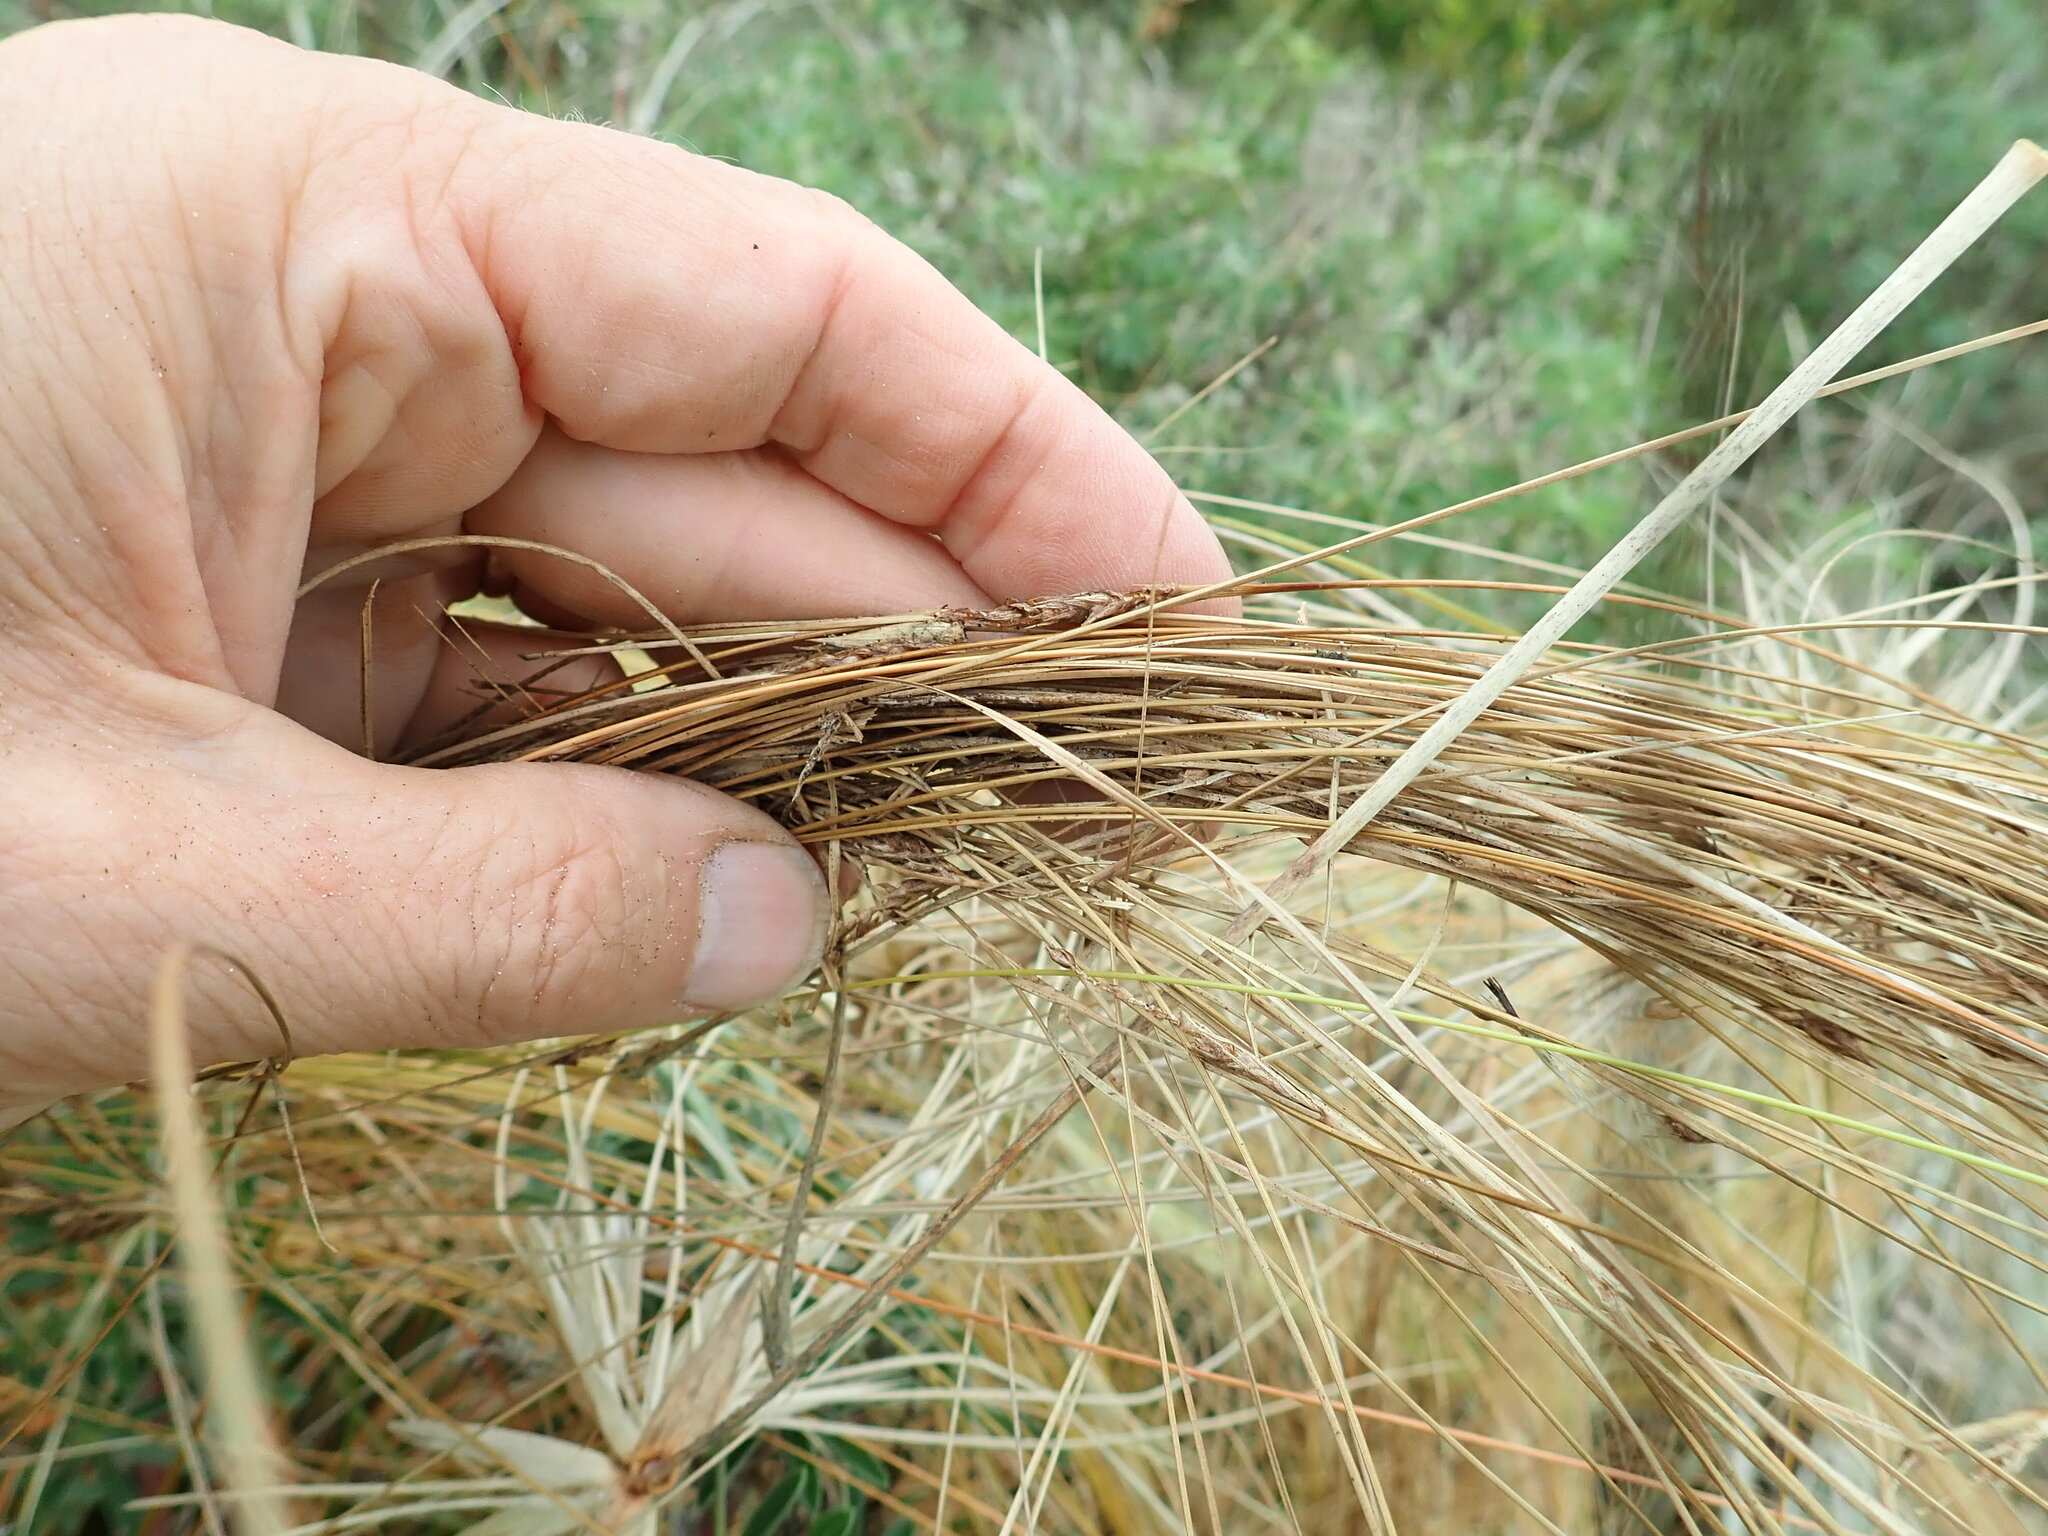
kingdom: Plantae
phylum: Tracheophyta
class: Liliopsida
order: Poales
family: Cyperaceae
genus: Carex
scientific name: Carex testacea
